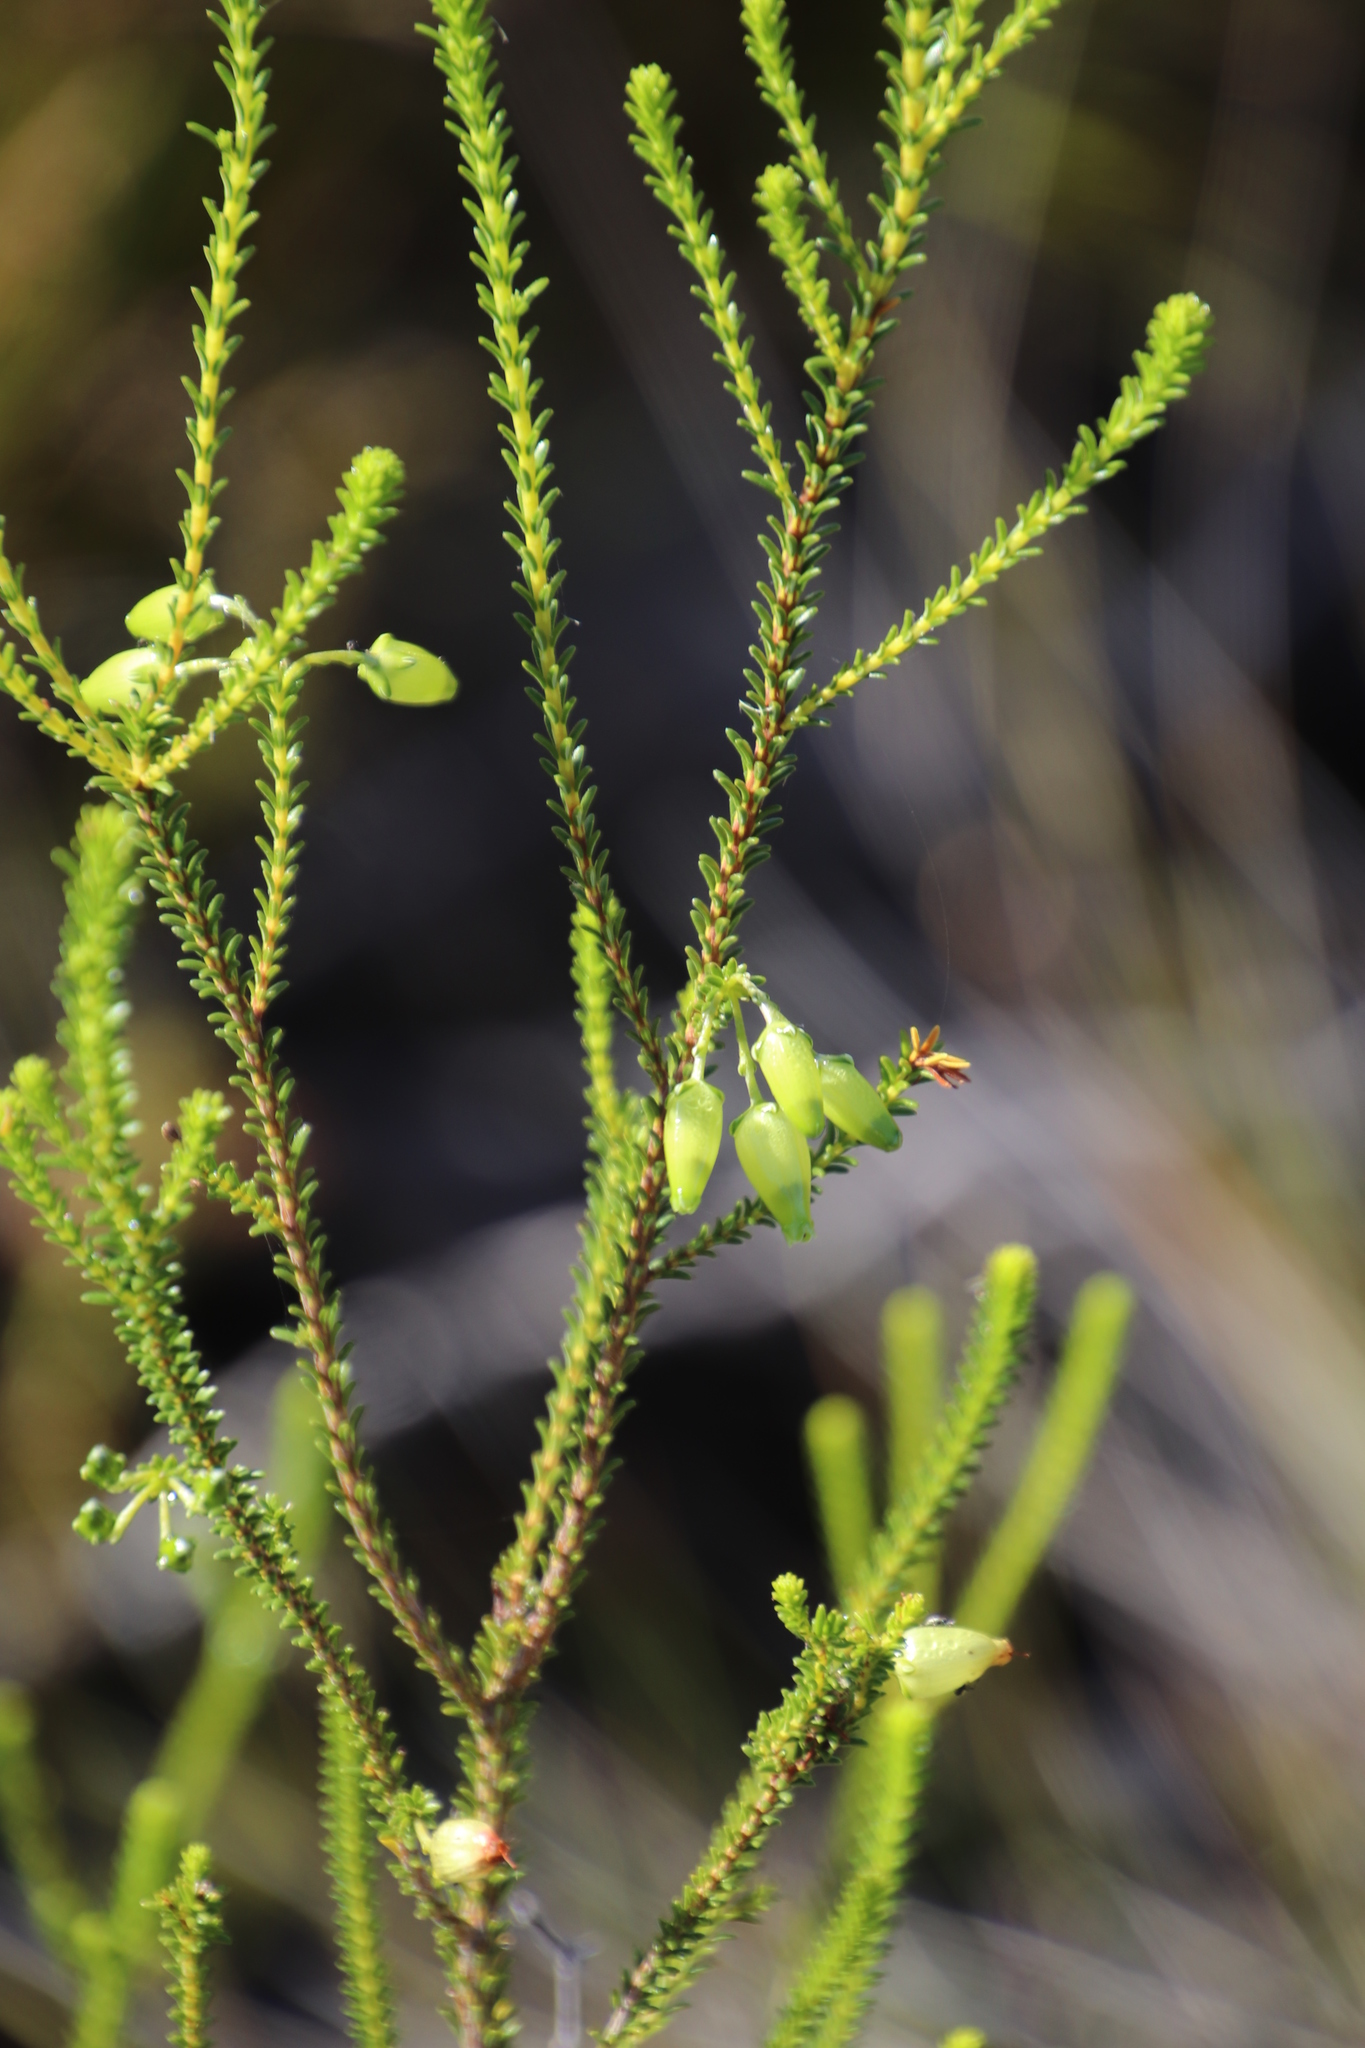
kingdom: Plantae
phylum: Tracheophyta
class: Magnoliopsida
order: Ericales
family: Ericaceae
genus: Erica
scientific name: Erica urna-viridis
